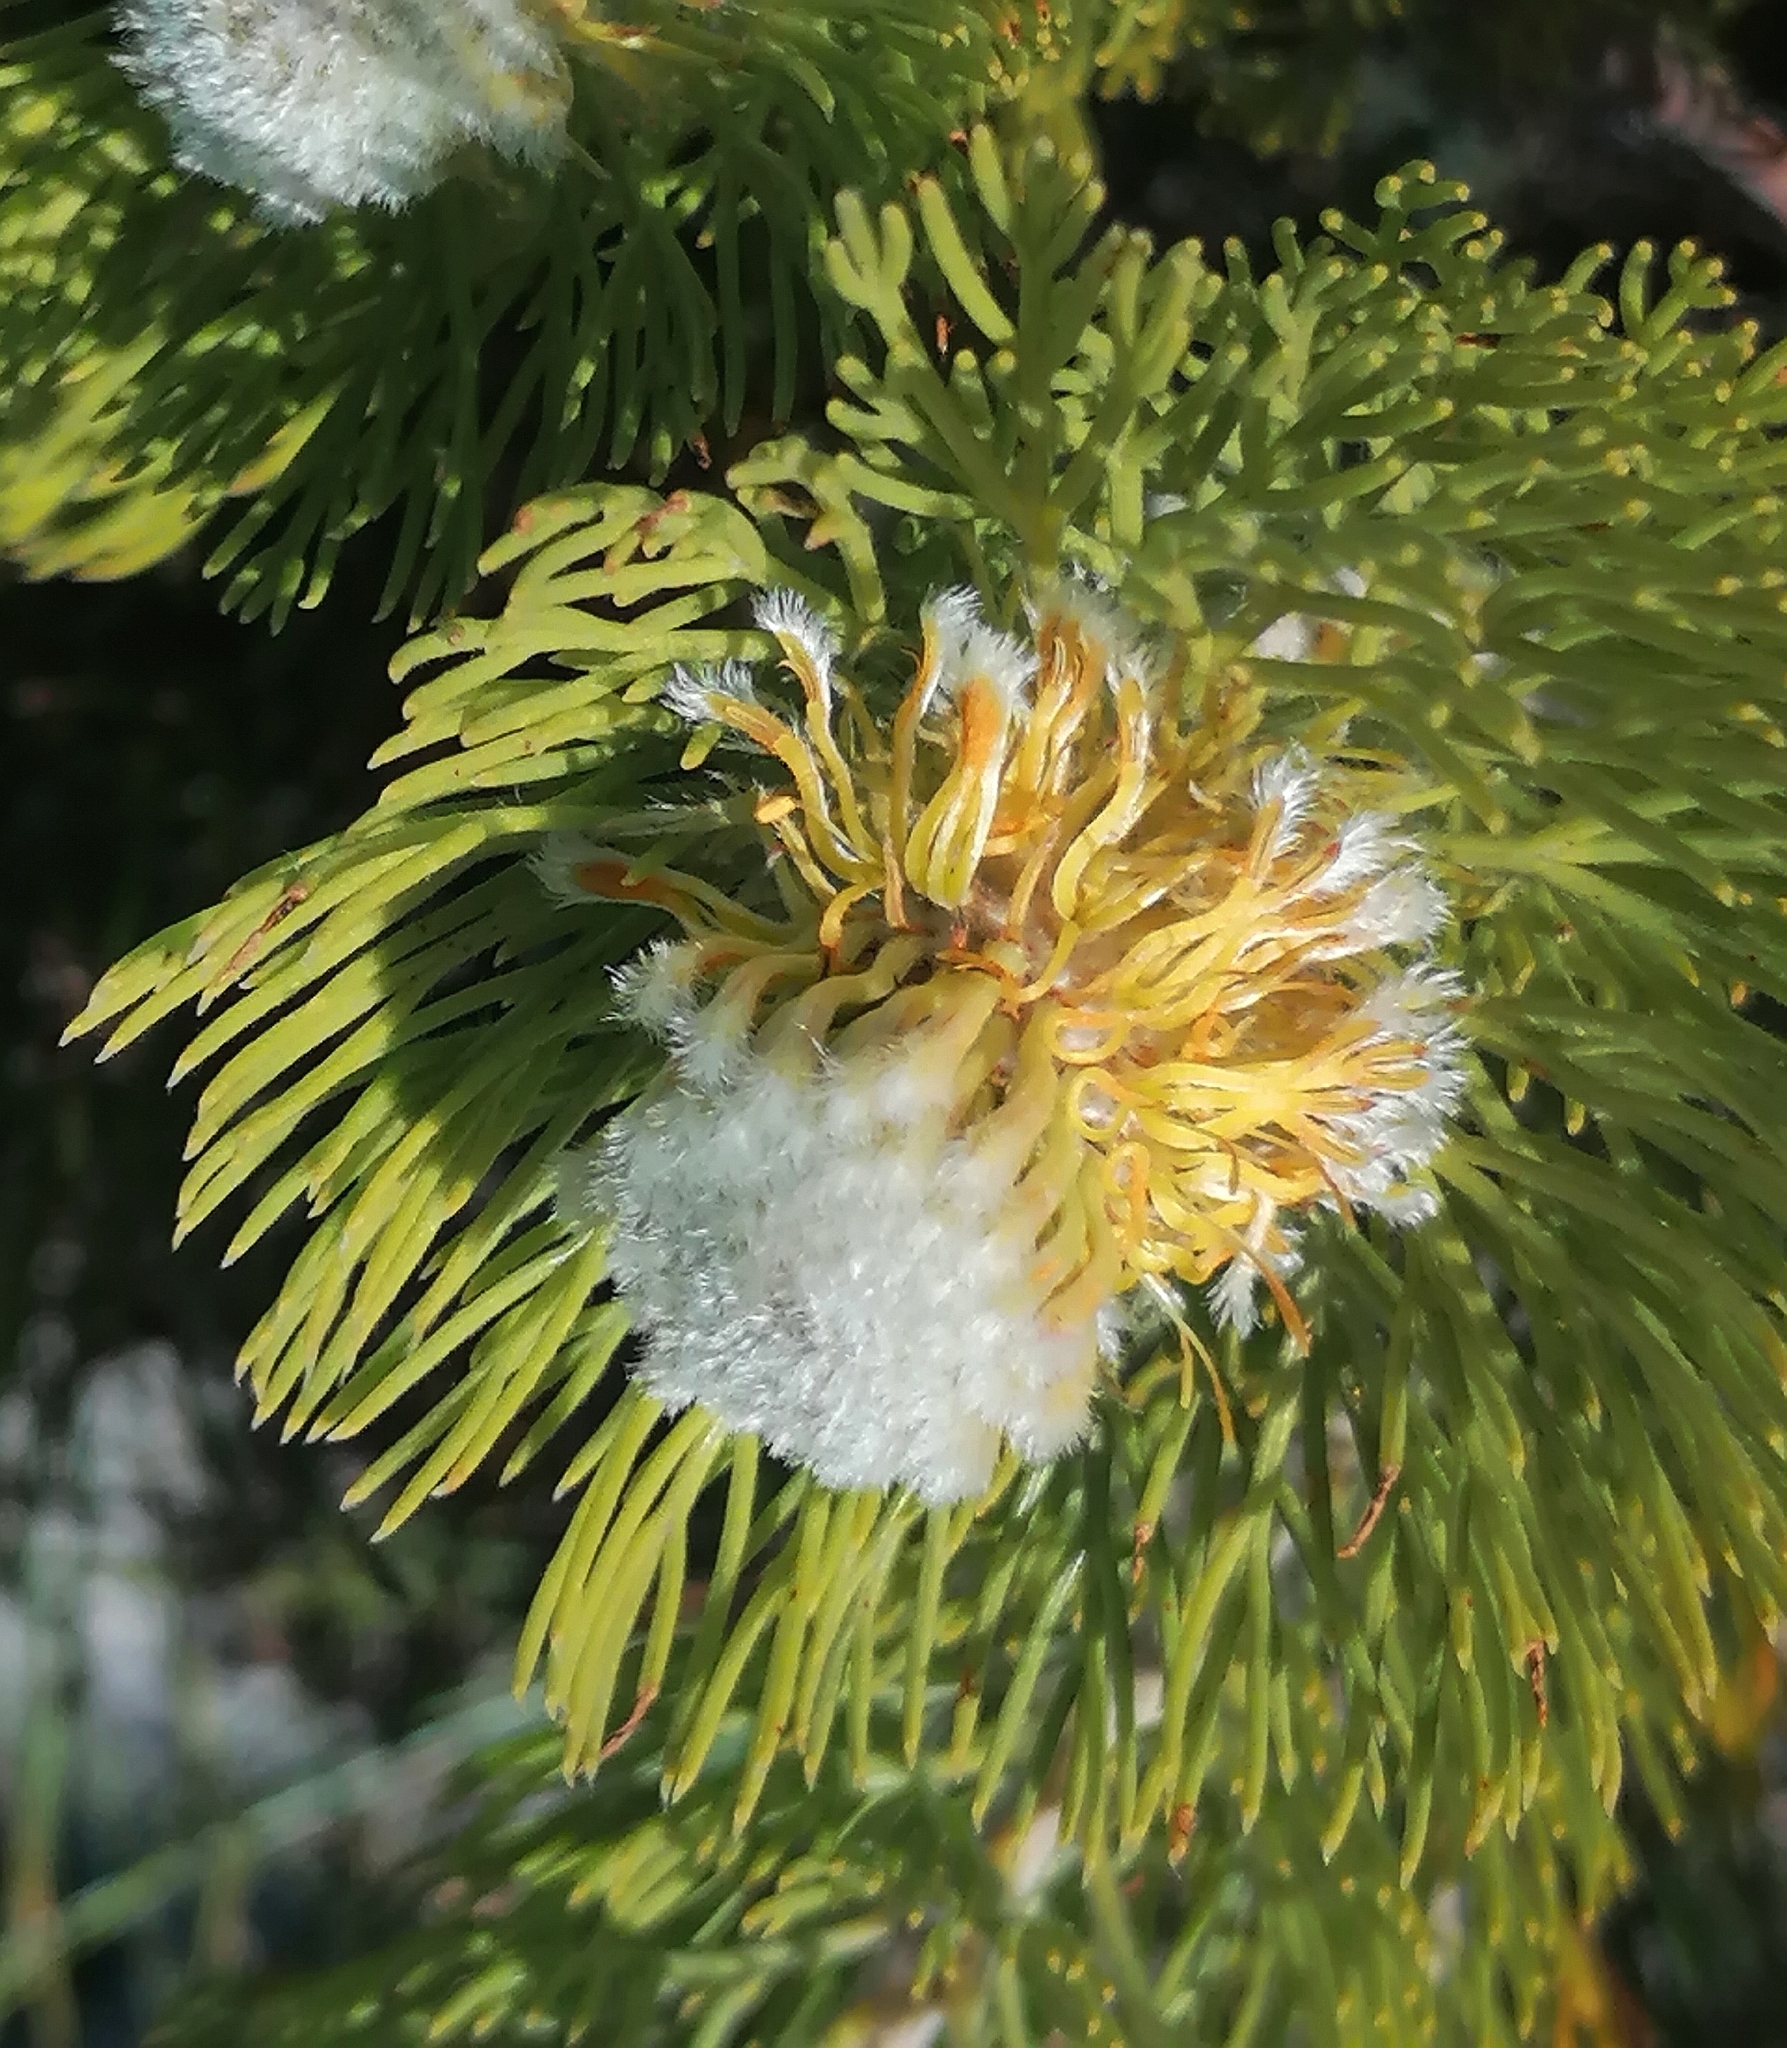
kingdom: Plantae
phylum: Tracheophyta
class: Magnoliopsida
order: Proteales
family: Proteaceae
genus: Serruria
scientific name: Serruria villosa
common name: Golden spiderhead
